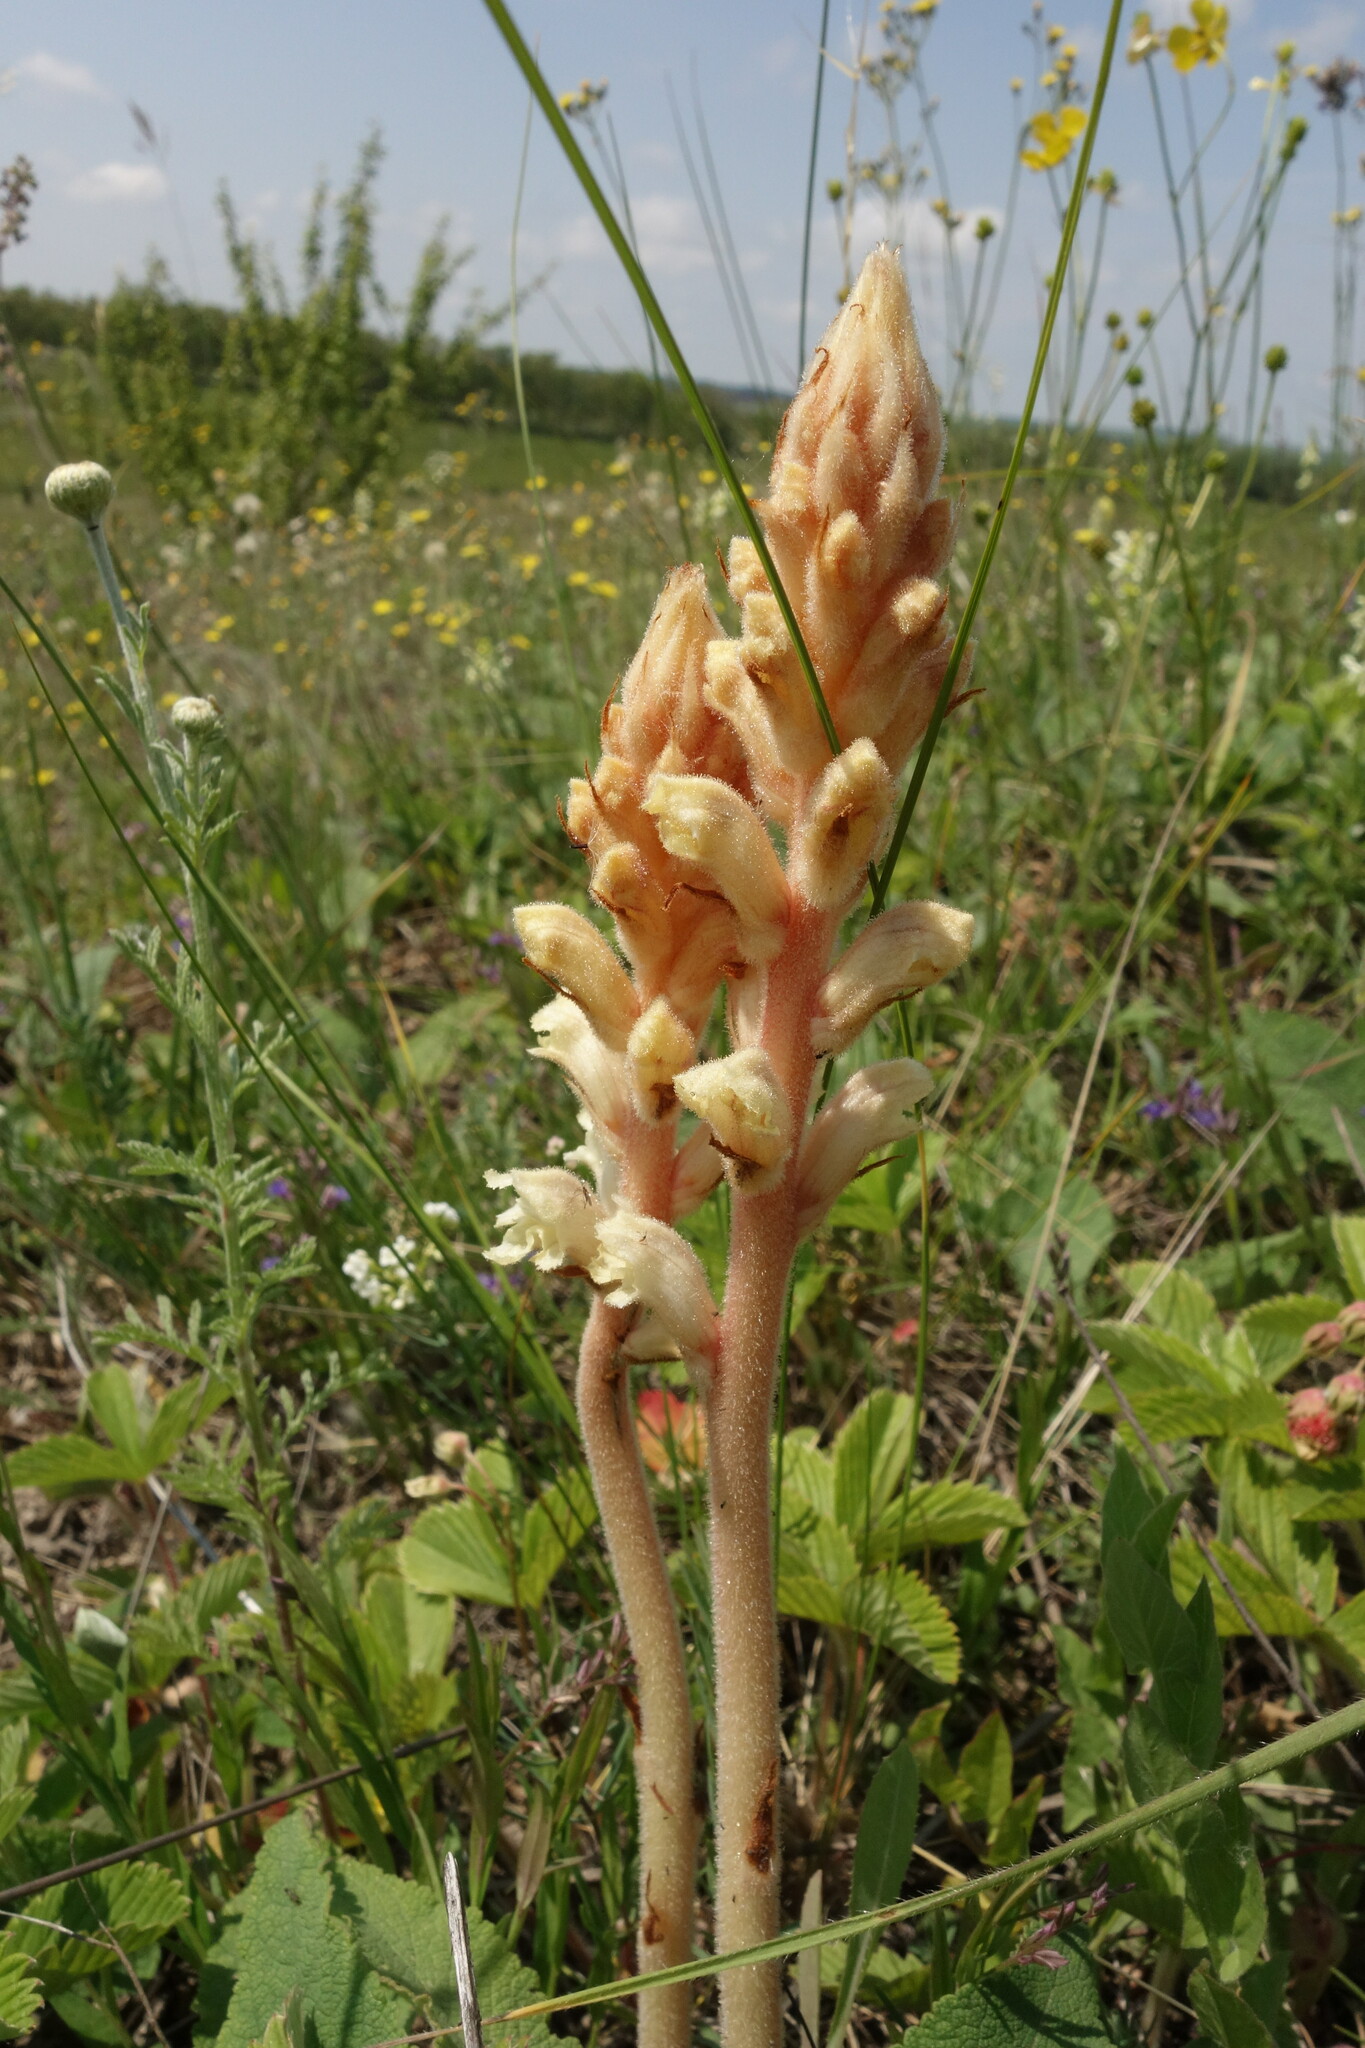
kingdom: Plantae
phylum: Tracheophyta
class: Magnoliopsida
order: Lamiales
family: Orobanchaceae
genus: Orobanche
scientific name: Orobanche alba
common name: Thyme broomrape
